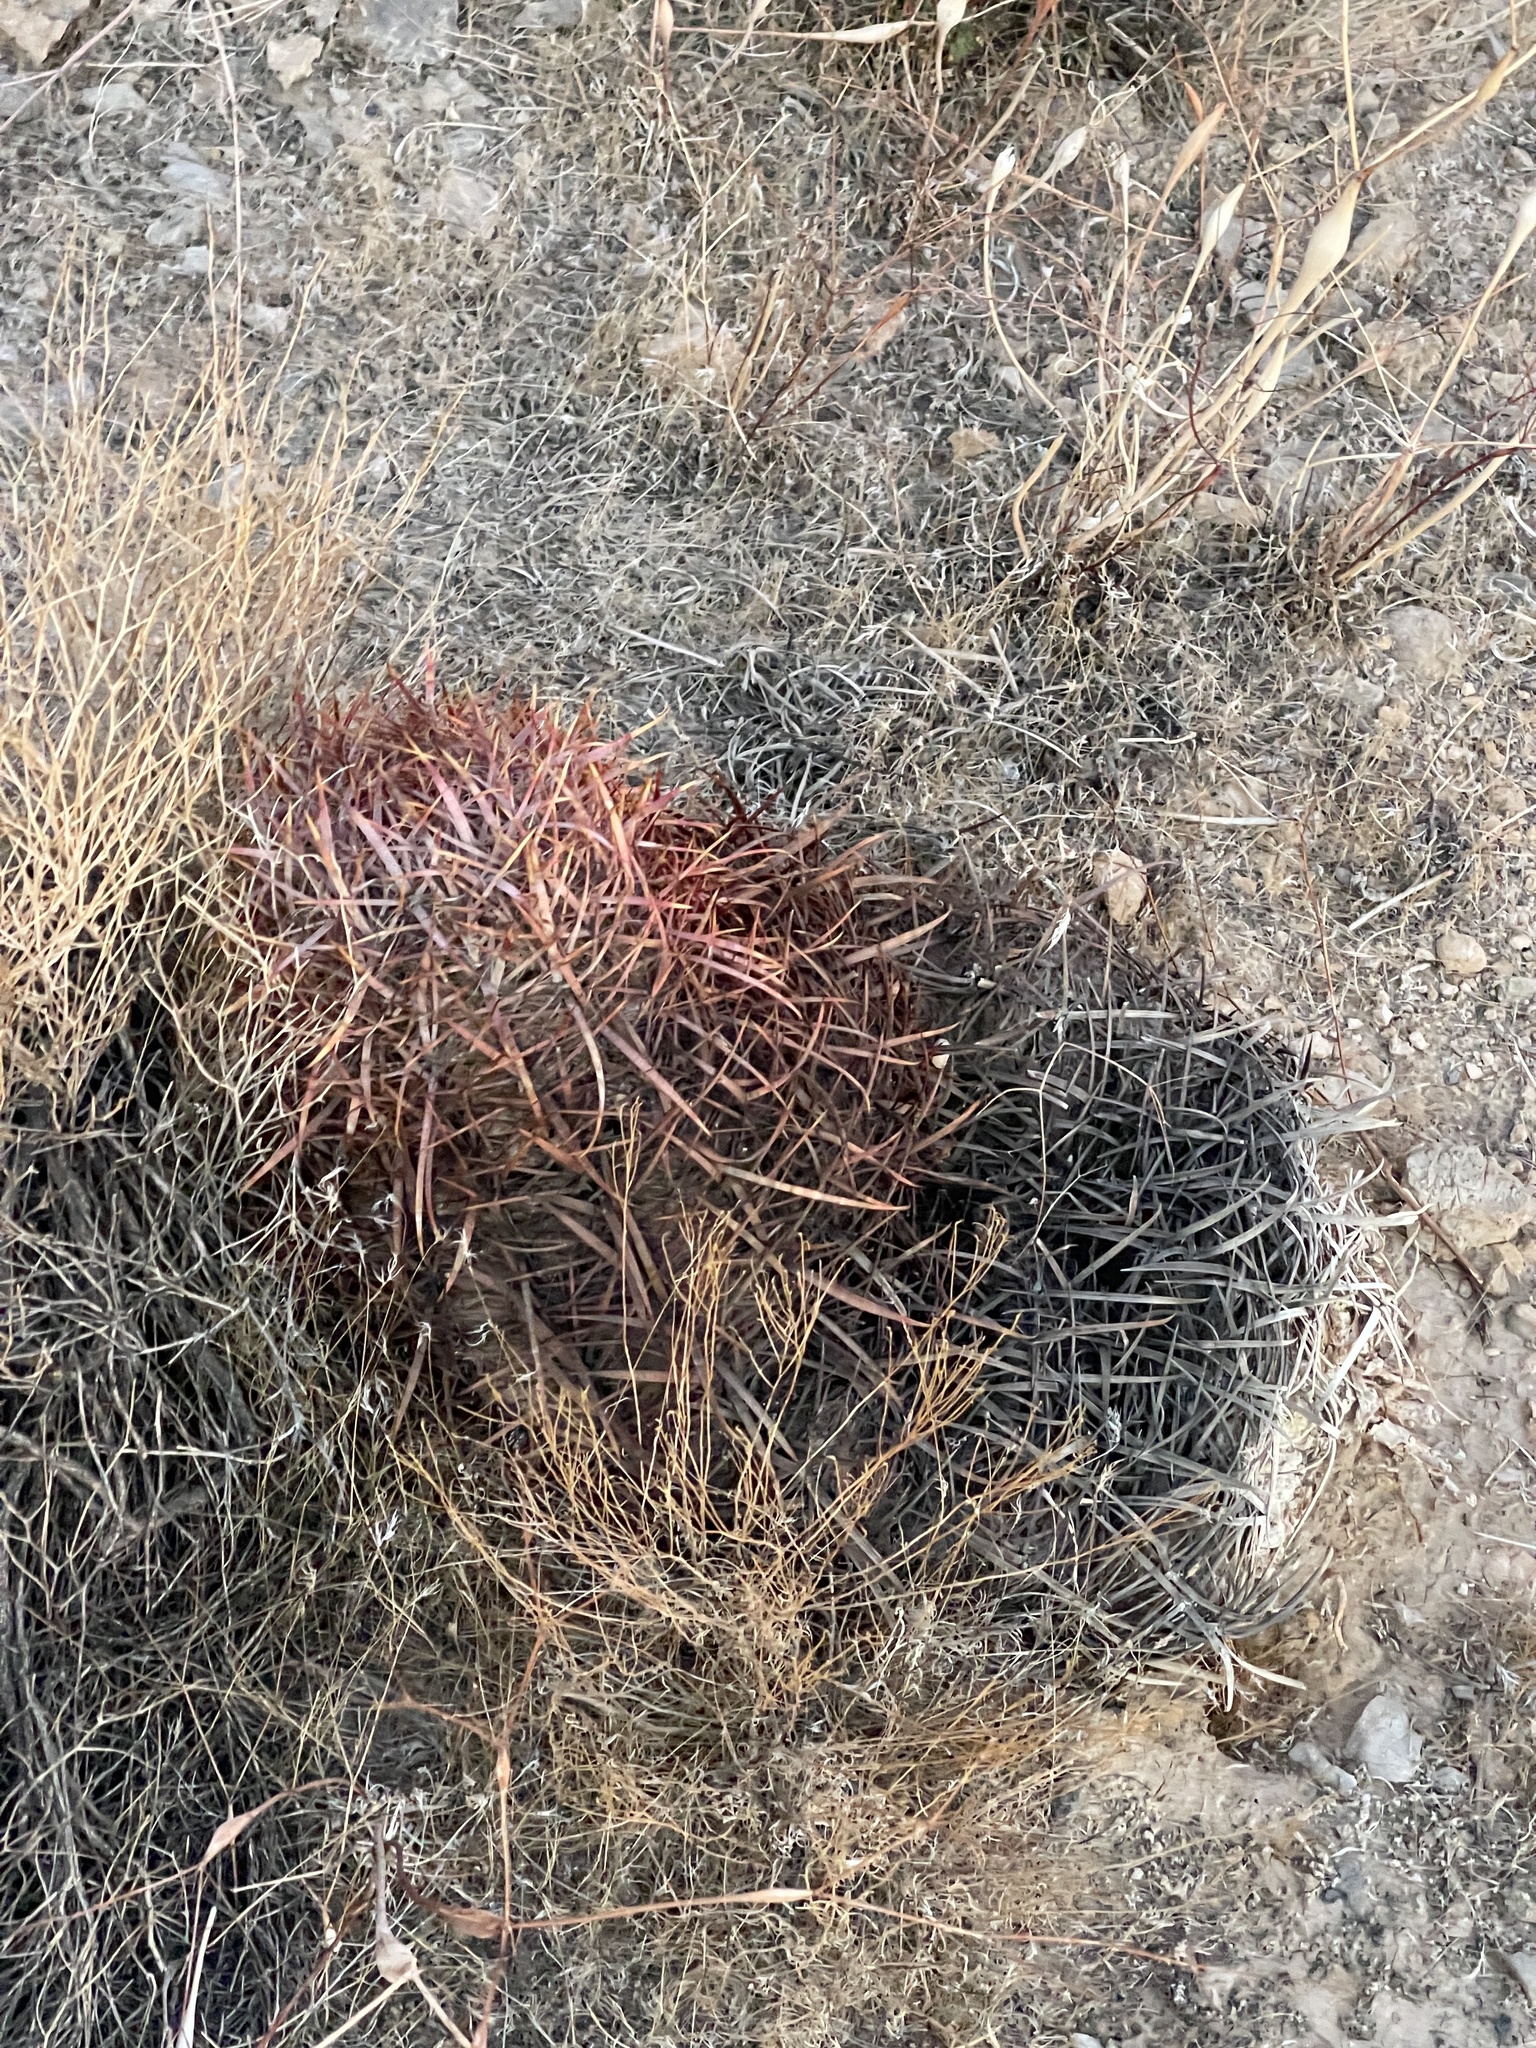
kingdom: Plantae
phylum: Tracheophyta
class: Magnoliopsida
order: Caryophyllales
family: Cactaceae
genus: Ferocactus
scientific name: Ferocactus cylindraceus
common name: California barrel cactus
